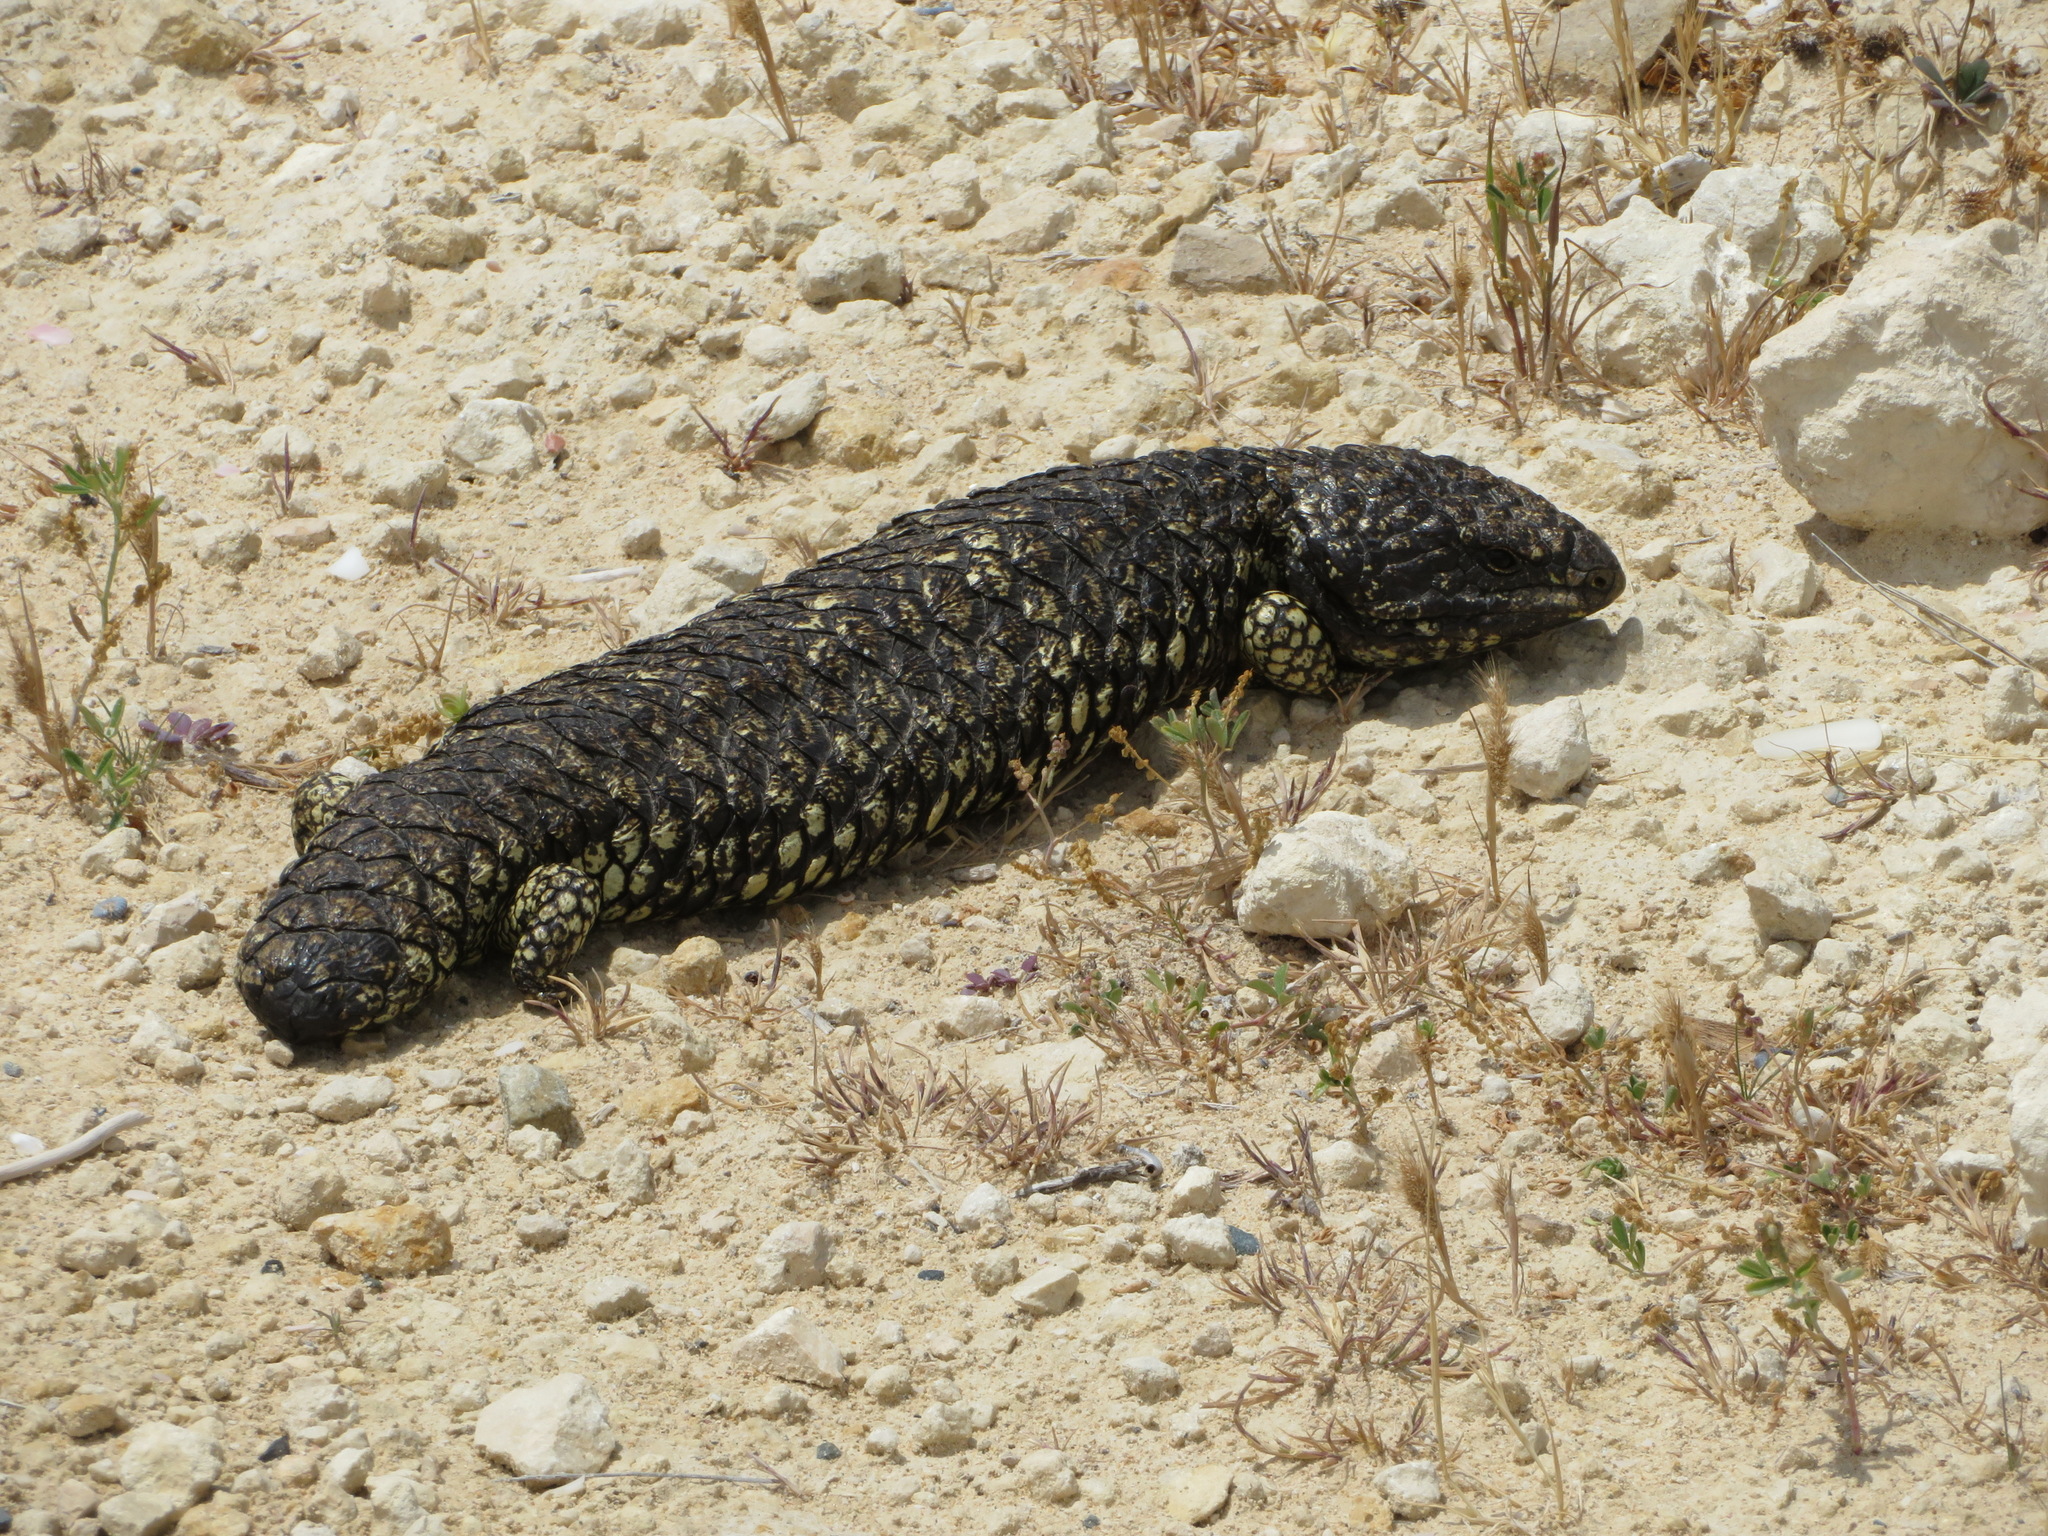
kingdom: Animalia
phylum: Chordata
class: Squamata
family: Scincidae
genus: Tiliqua
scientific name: Tiliqua rugosa
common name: Pinecone lizard
